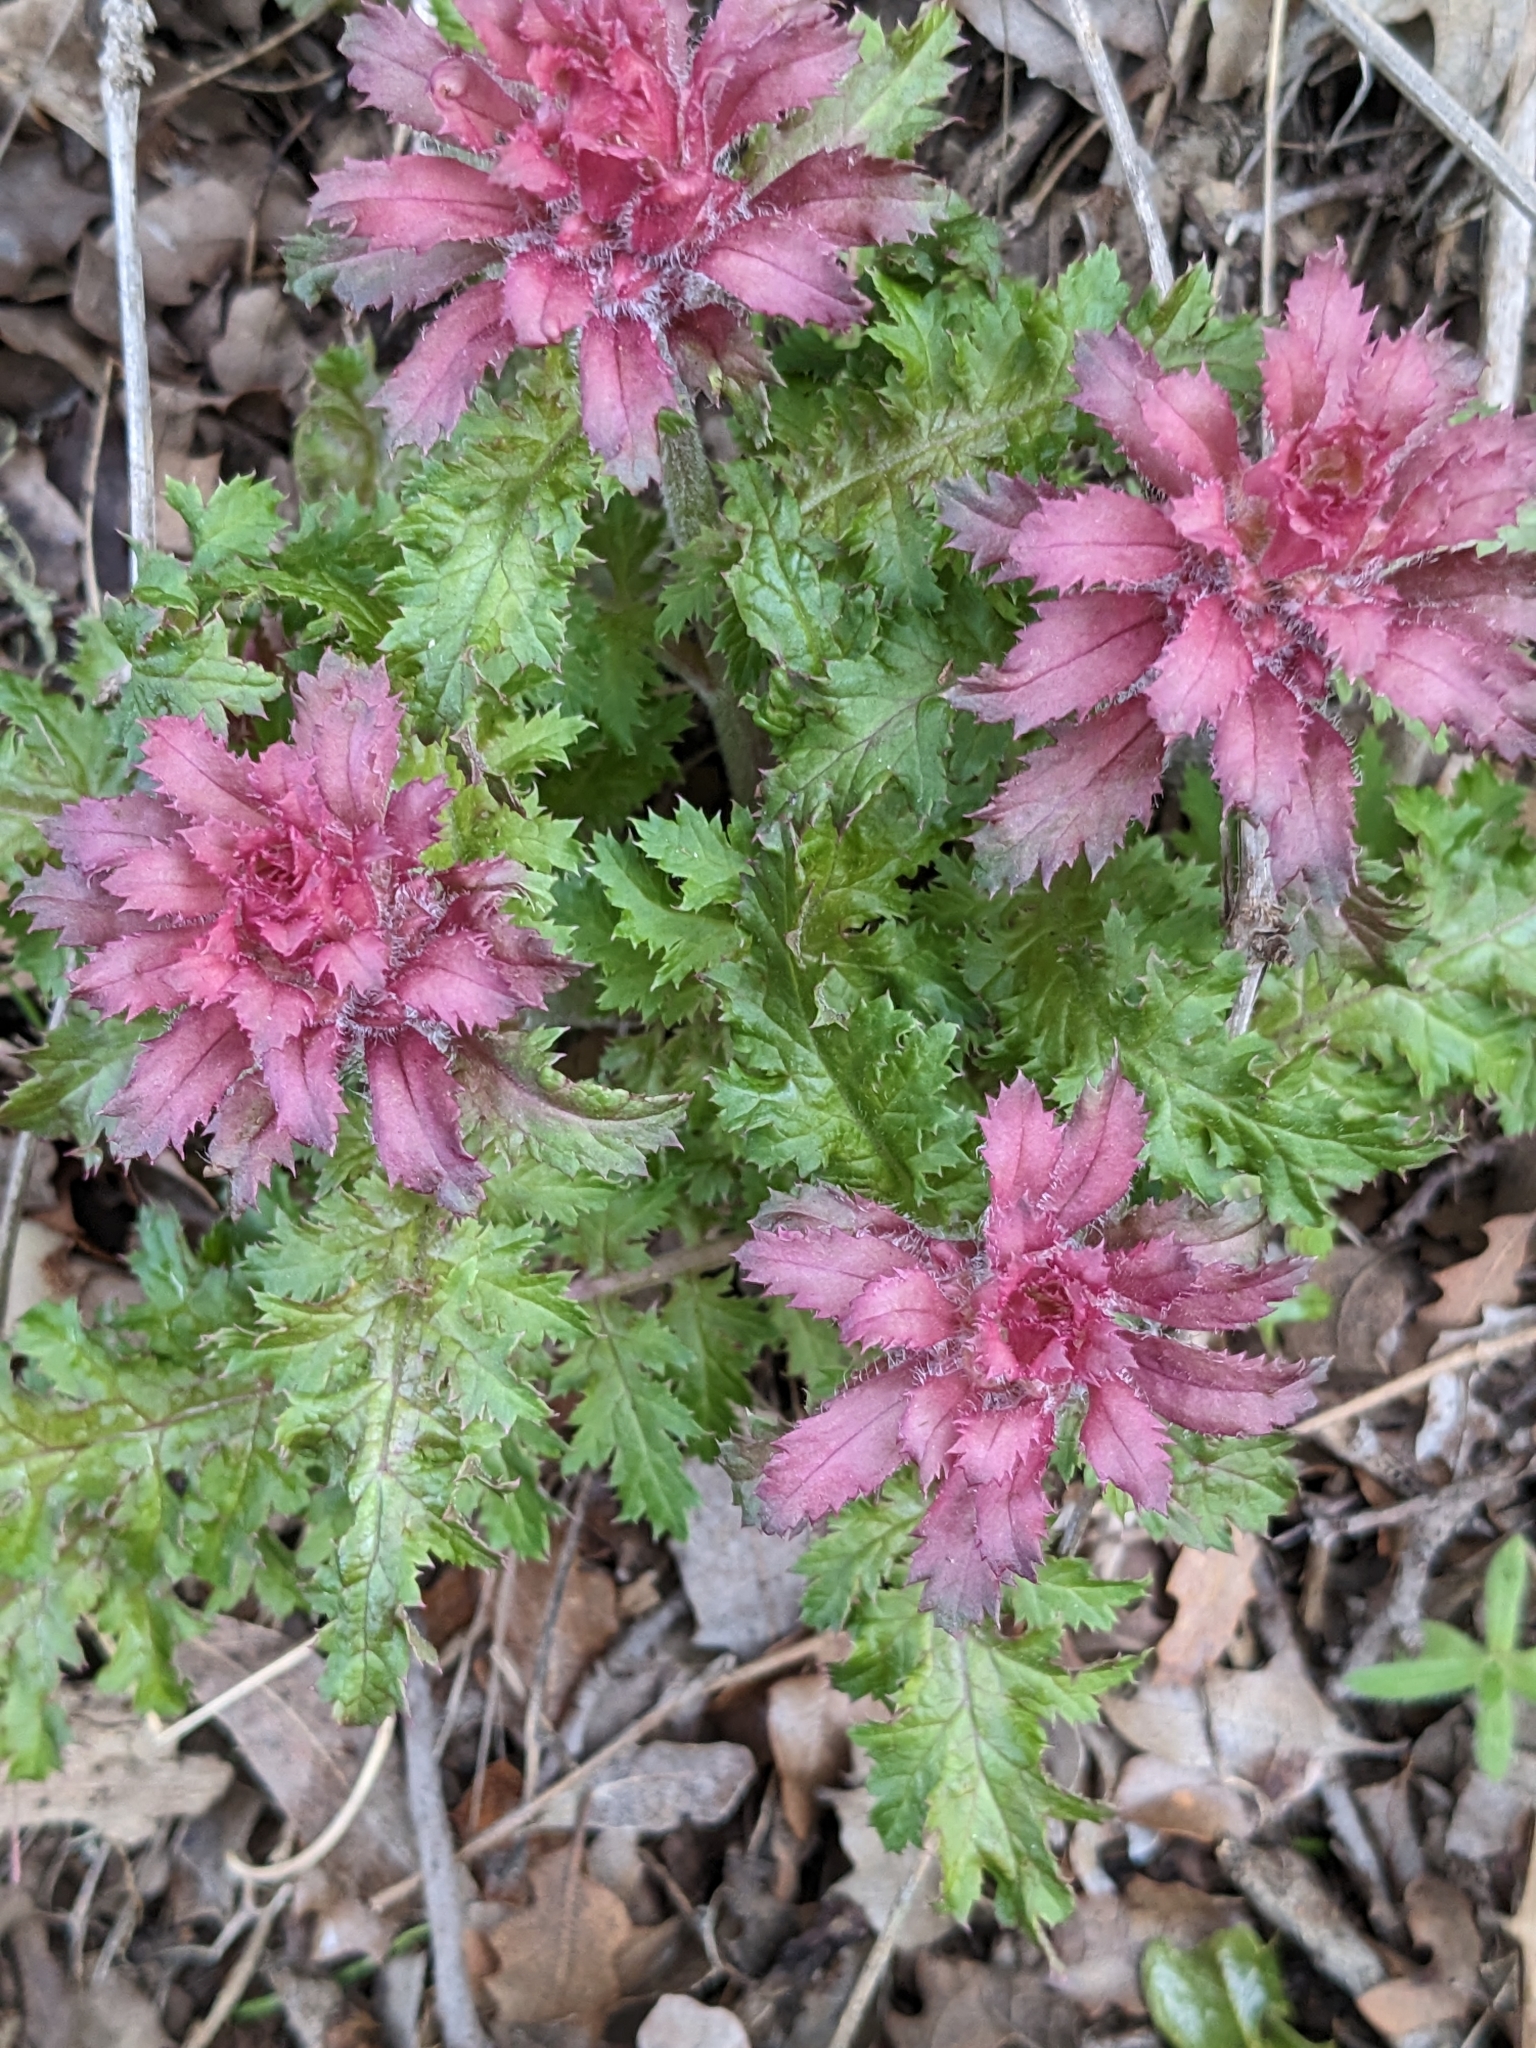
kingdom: Plantae
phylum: Tracheophyta
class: Magnoliopsida
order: Lamiales
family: Orobanchaceae
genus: Pedicularis
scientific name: Pedicularis densiflora
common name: Indian warrior
